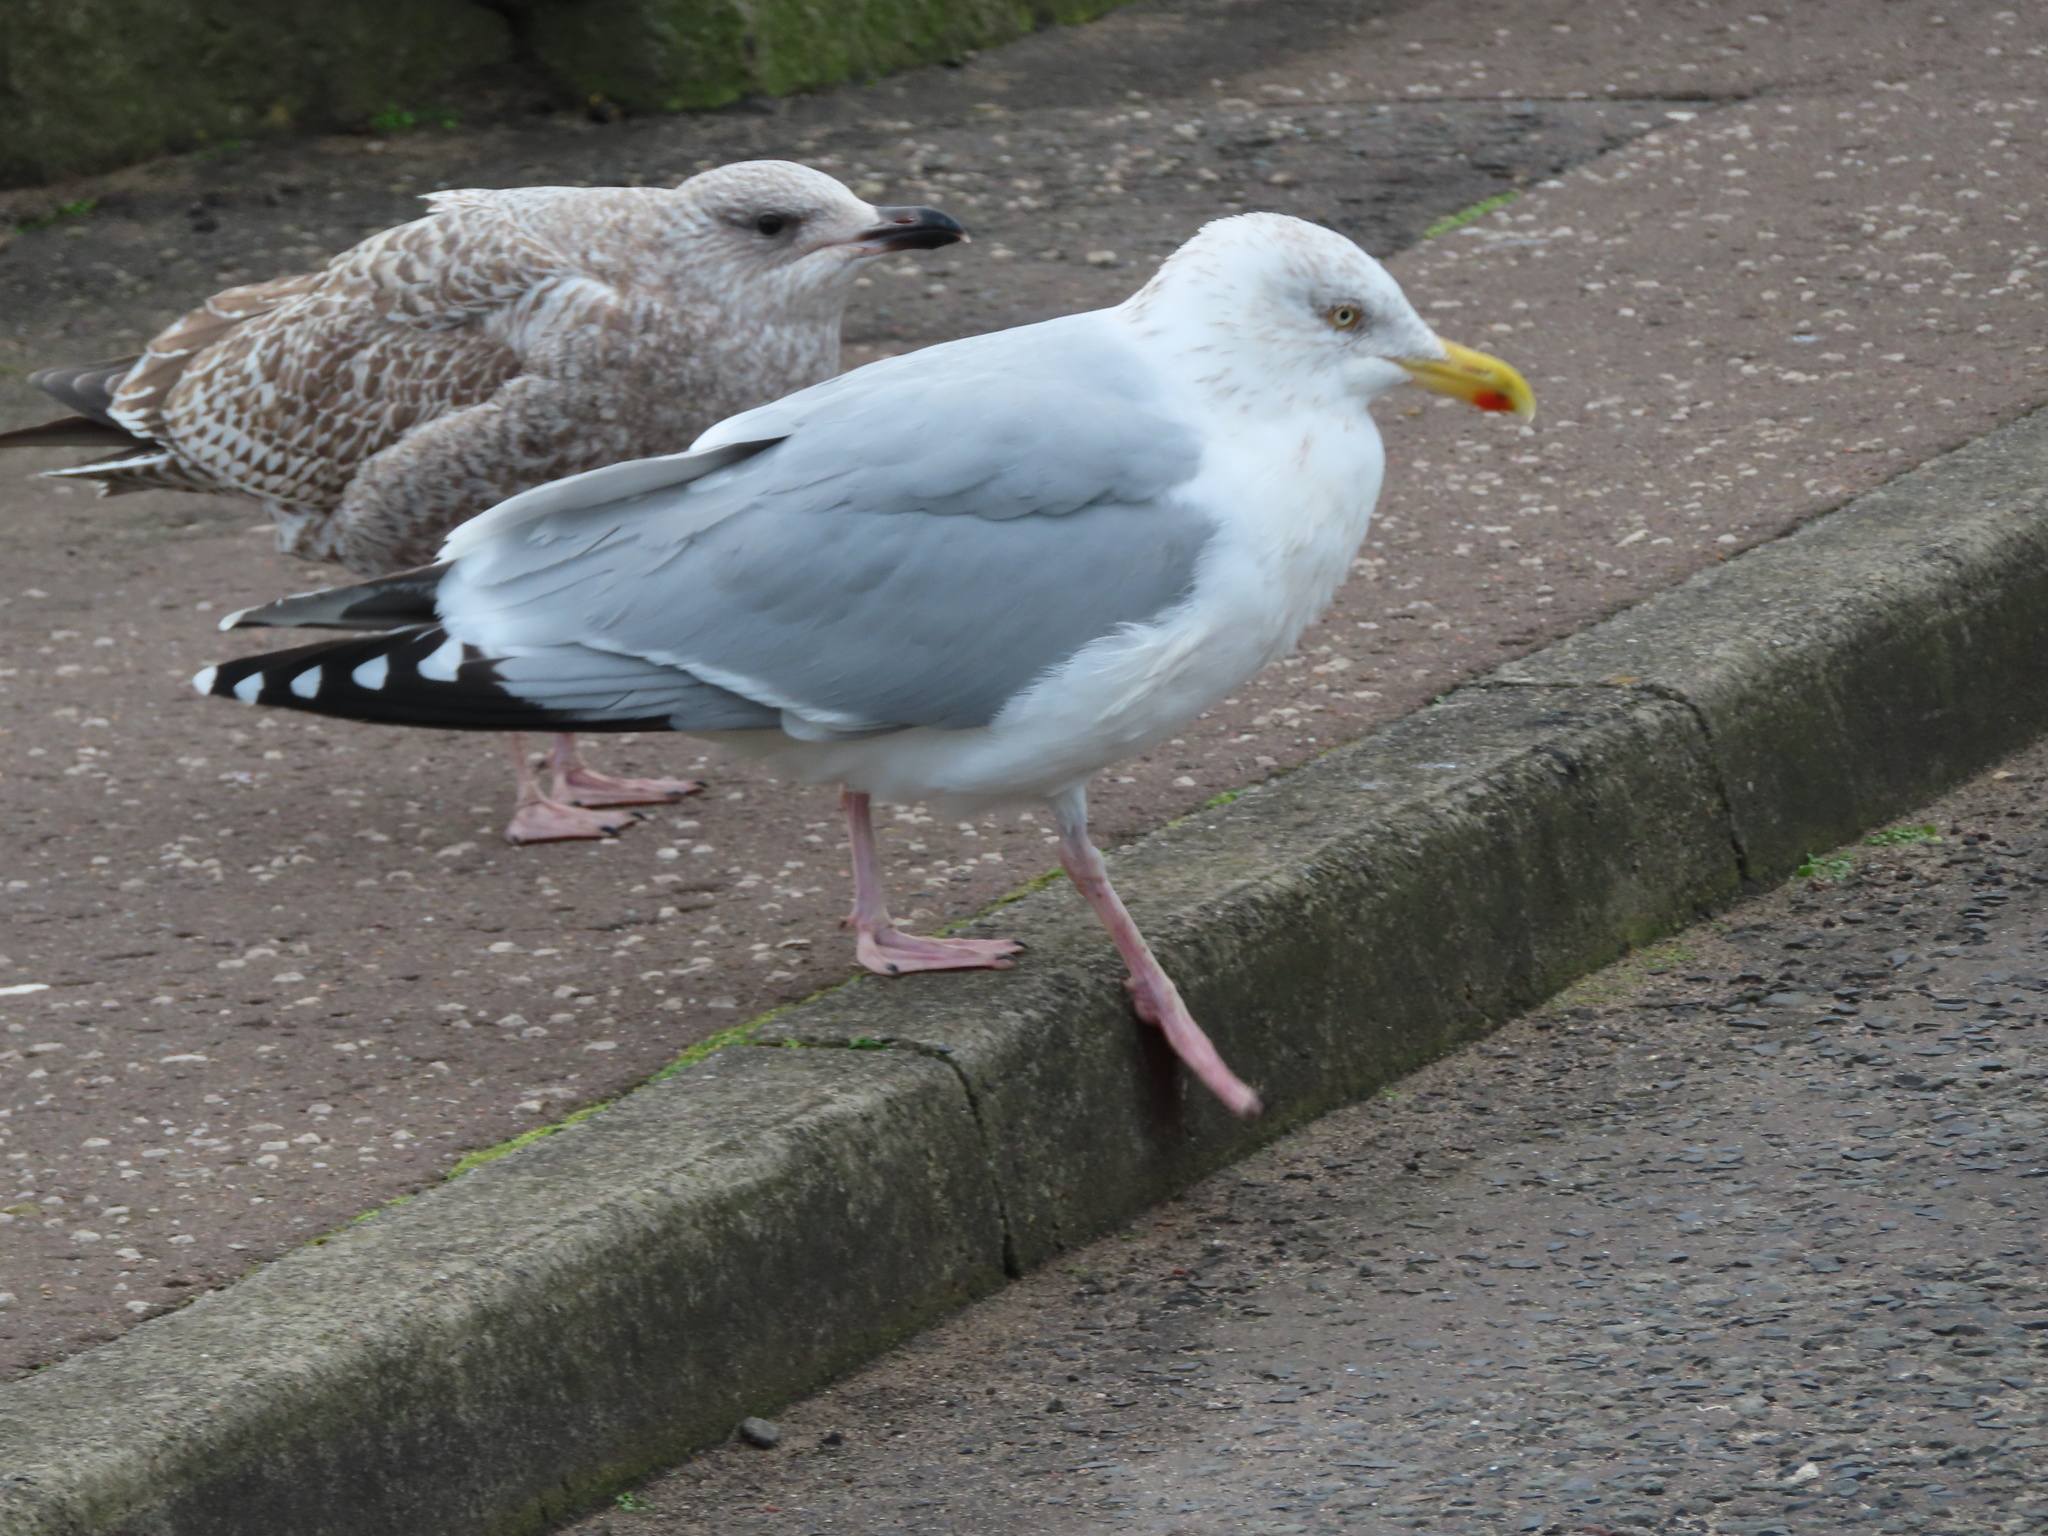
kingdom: Animalia
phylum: Chordata
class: Aves
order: Charadriiformes
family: Laridae
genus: Larus
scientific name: Larus argentatus
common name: Herring gull
